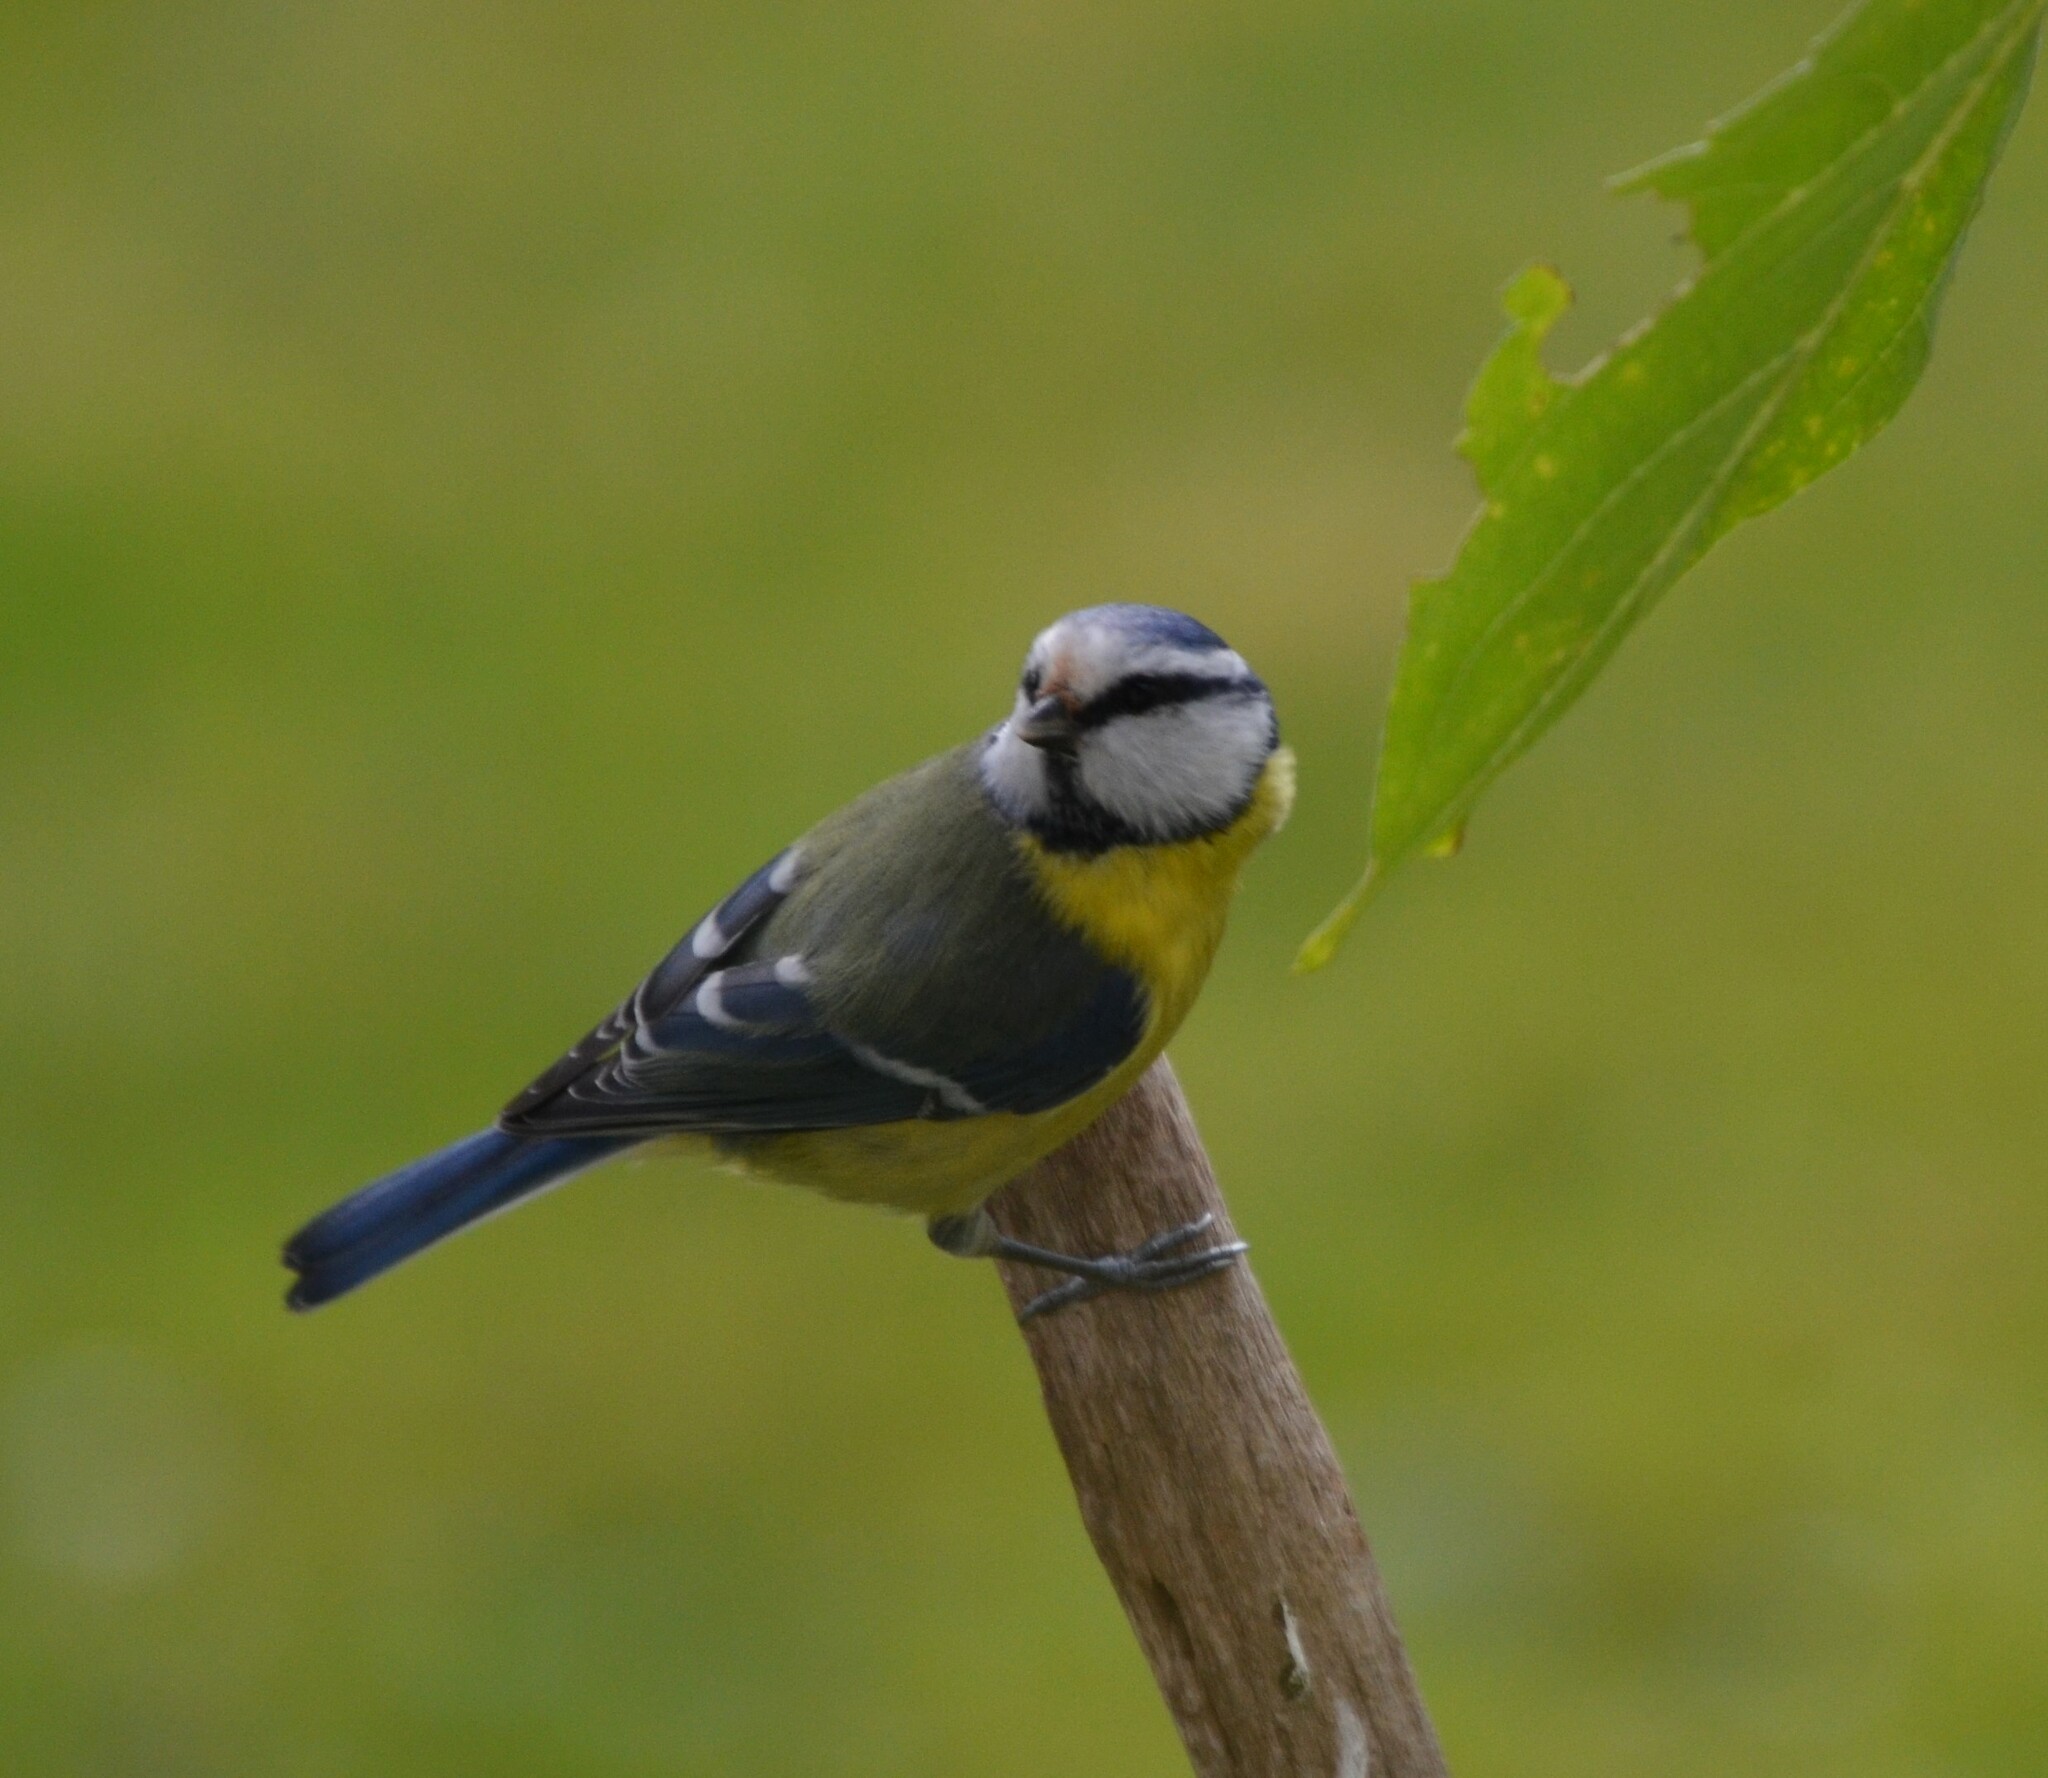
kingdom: Animalia
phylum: Chordata
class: Aves
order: Passeriformes
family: Paridae
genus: Cyanistes
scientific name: Cyanistes caeruleus
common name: Eurasian blue tit
